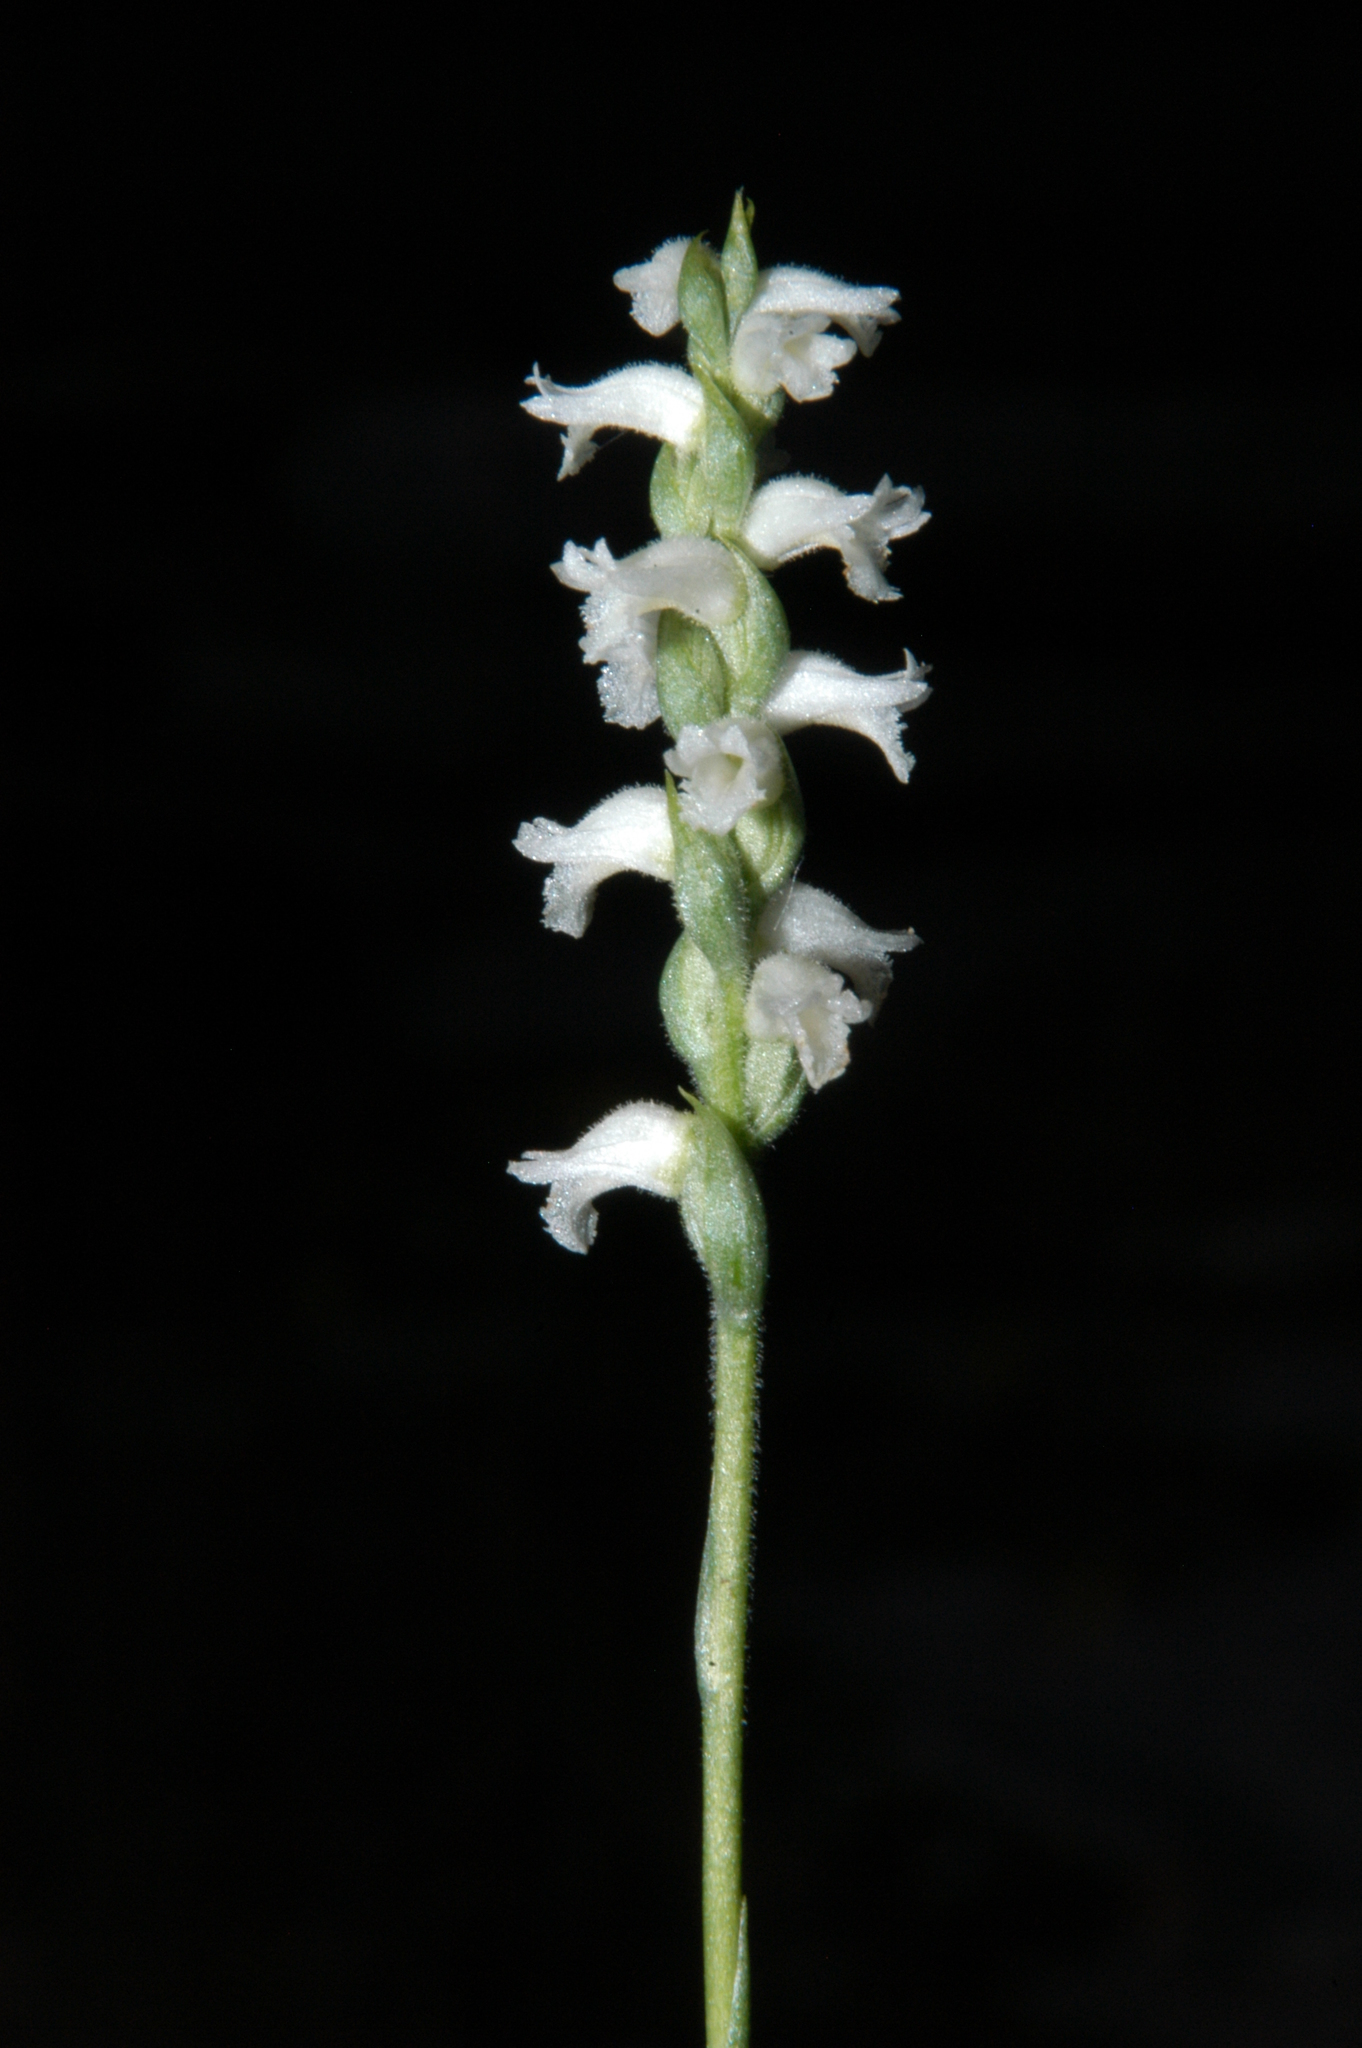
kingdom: Plantae
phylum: Tracheophyta
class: Liliopsida
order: Asparagales
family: Orchidaceae
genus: Spiranthes
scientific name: Spiranthes cernua
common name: Dropping ladies'-tresses
